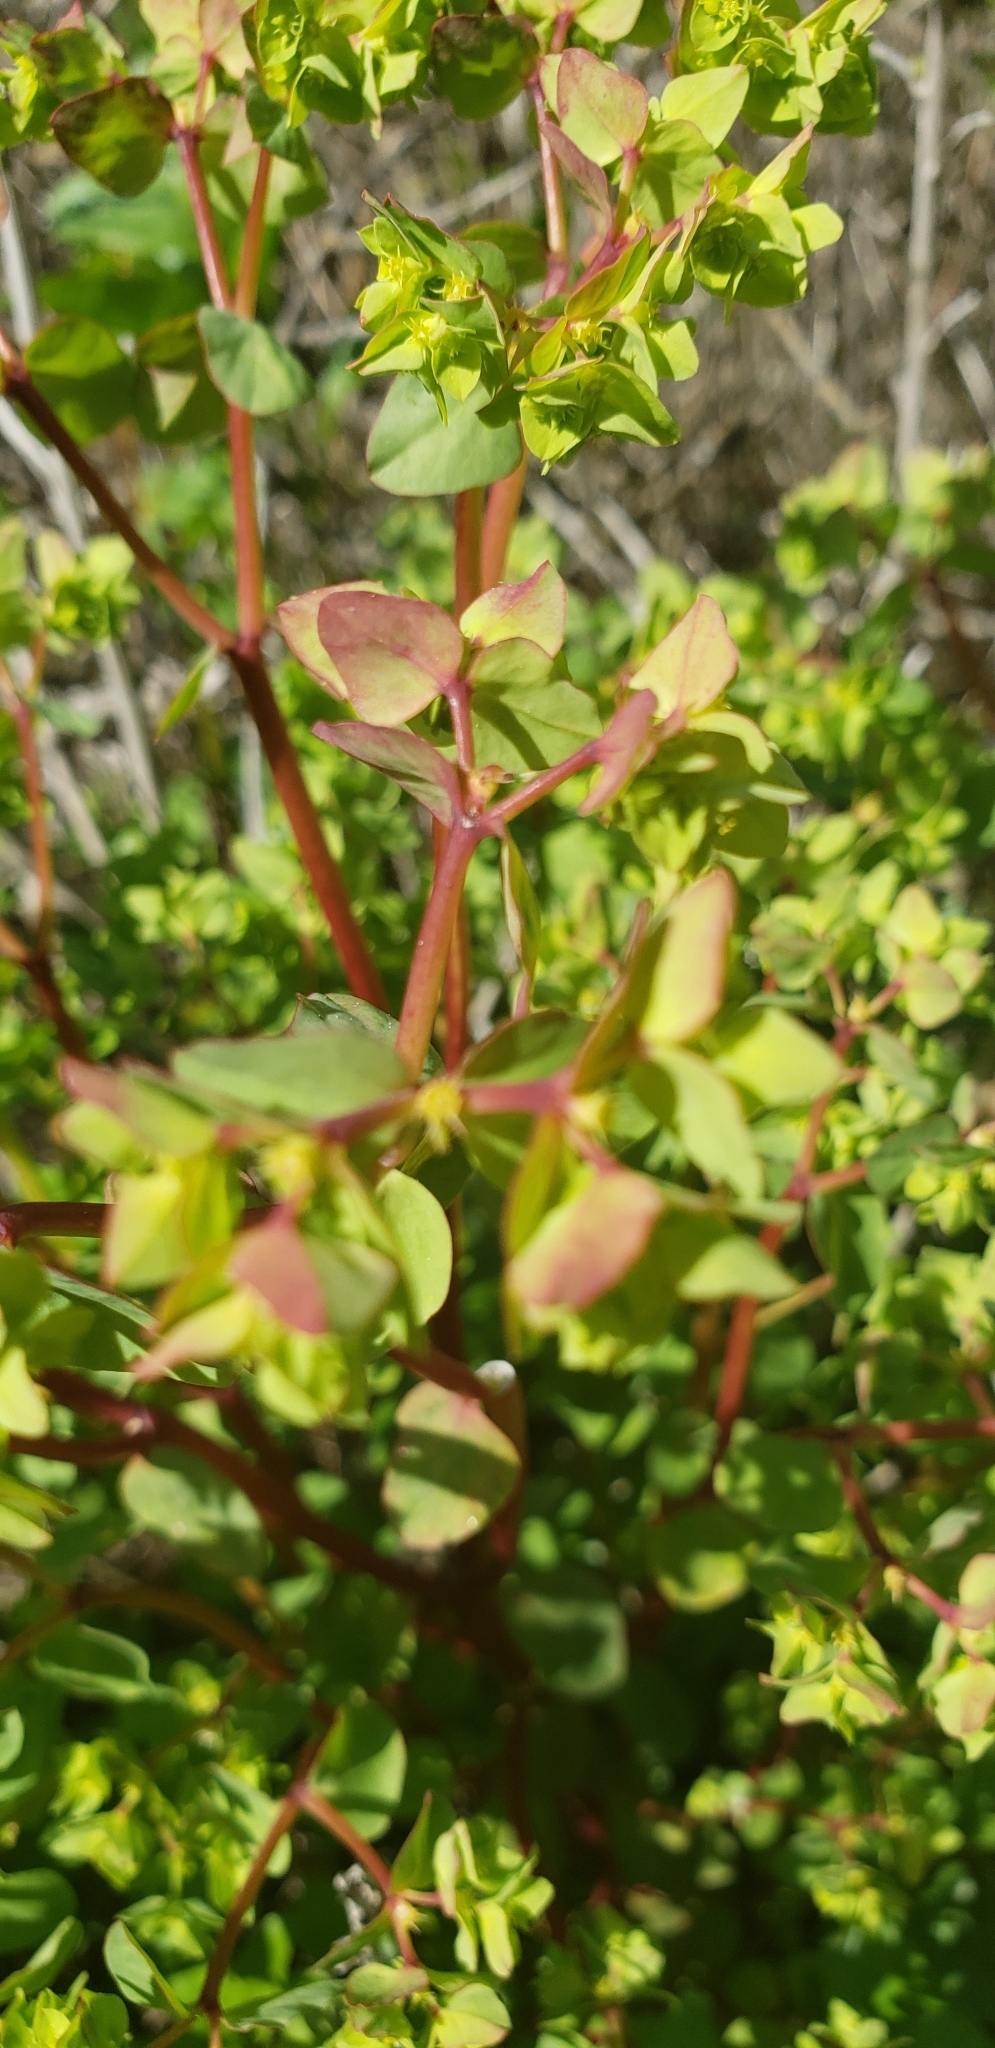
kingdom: Plantae
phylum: Tracheophyta
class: Magnoliopsida
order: Malpighiales
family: Euphorbiaceae
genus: Euphorbia
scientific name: Euphorbia peplus
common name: Petty spurge
